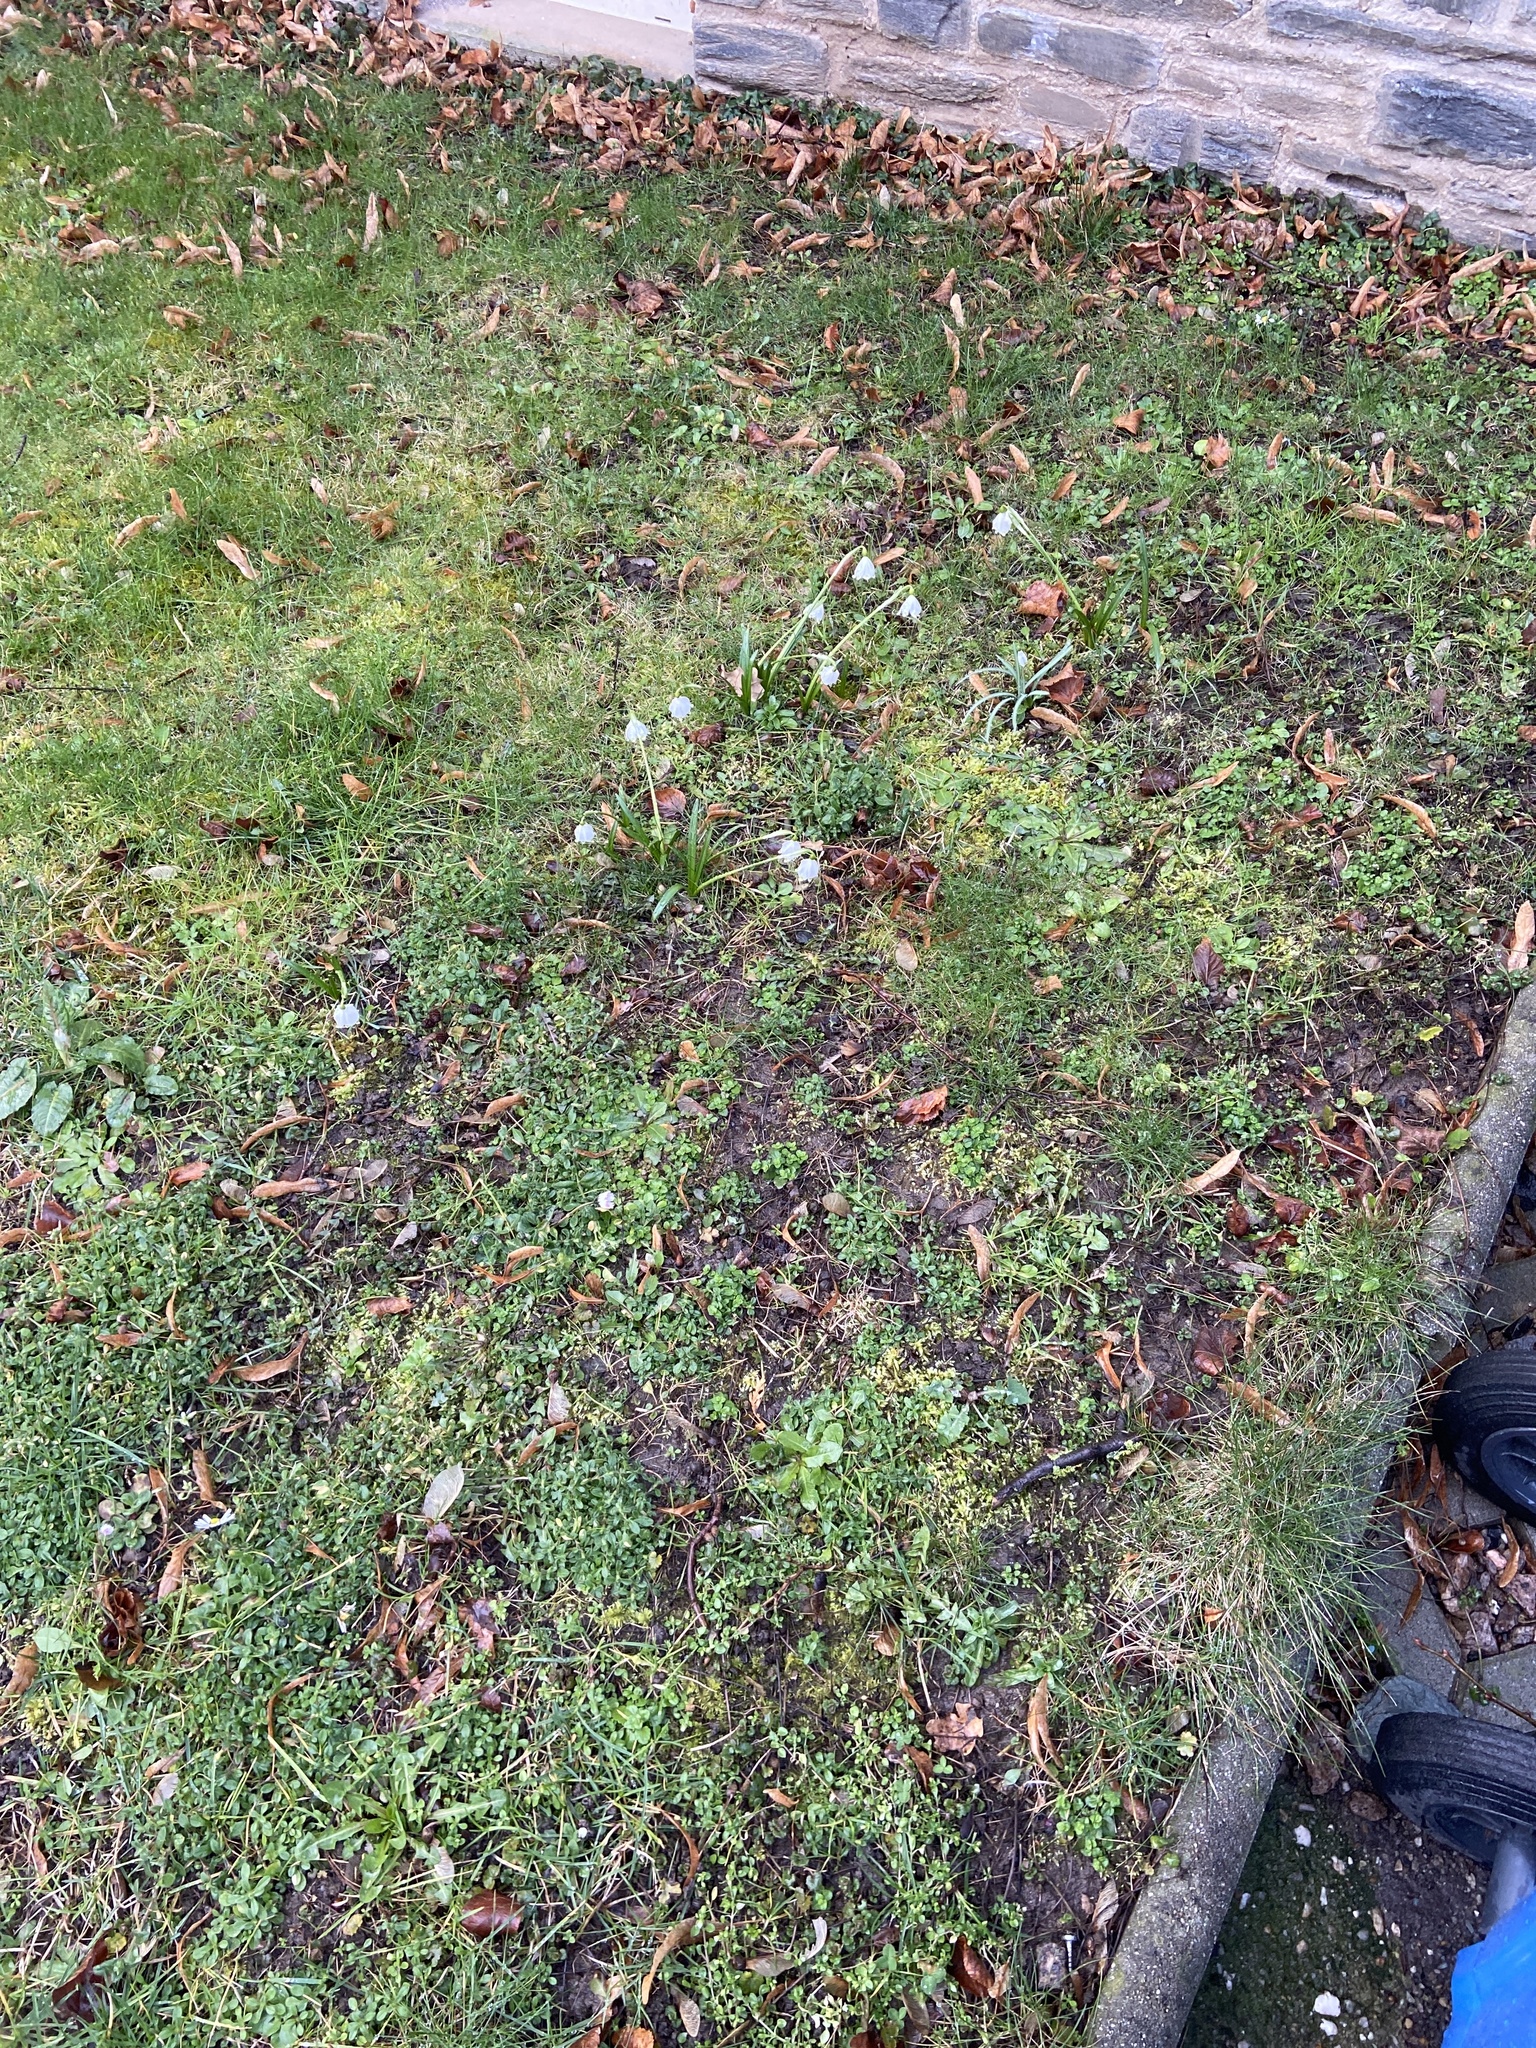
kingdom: Plantae
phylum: Tracheophyta
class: Liliopsida
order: Asparagales
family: Amaryllidaceae
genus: Leucojum
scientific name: Leucojum vernum
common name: Spring snowflake
